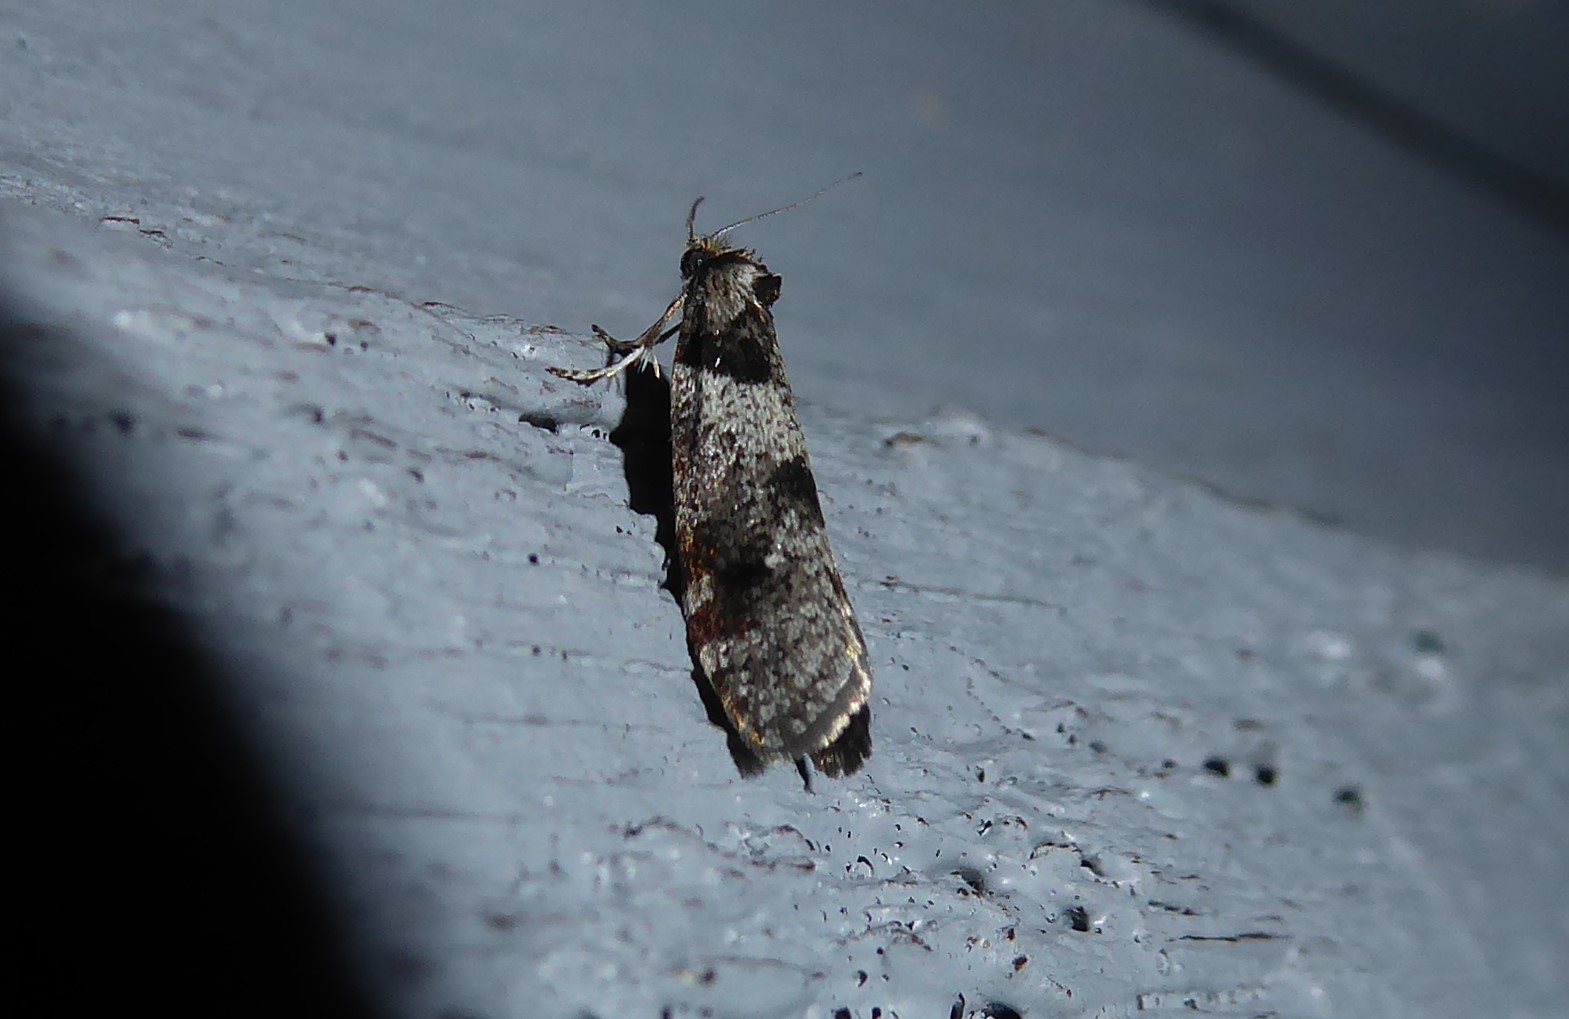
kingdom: Animalia
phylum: Arthropoda
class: Insecta
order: Lepidoptera
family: Psychidae
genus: Lepidoscia
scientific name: Lepidoscia heliochares
